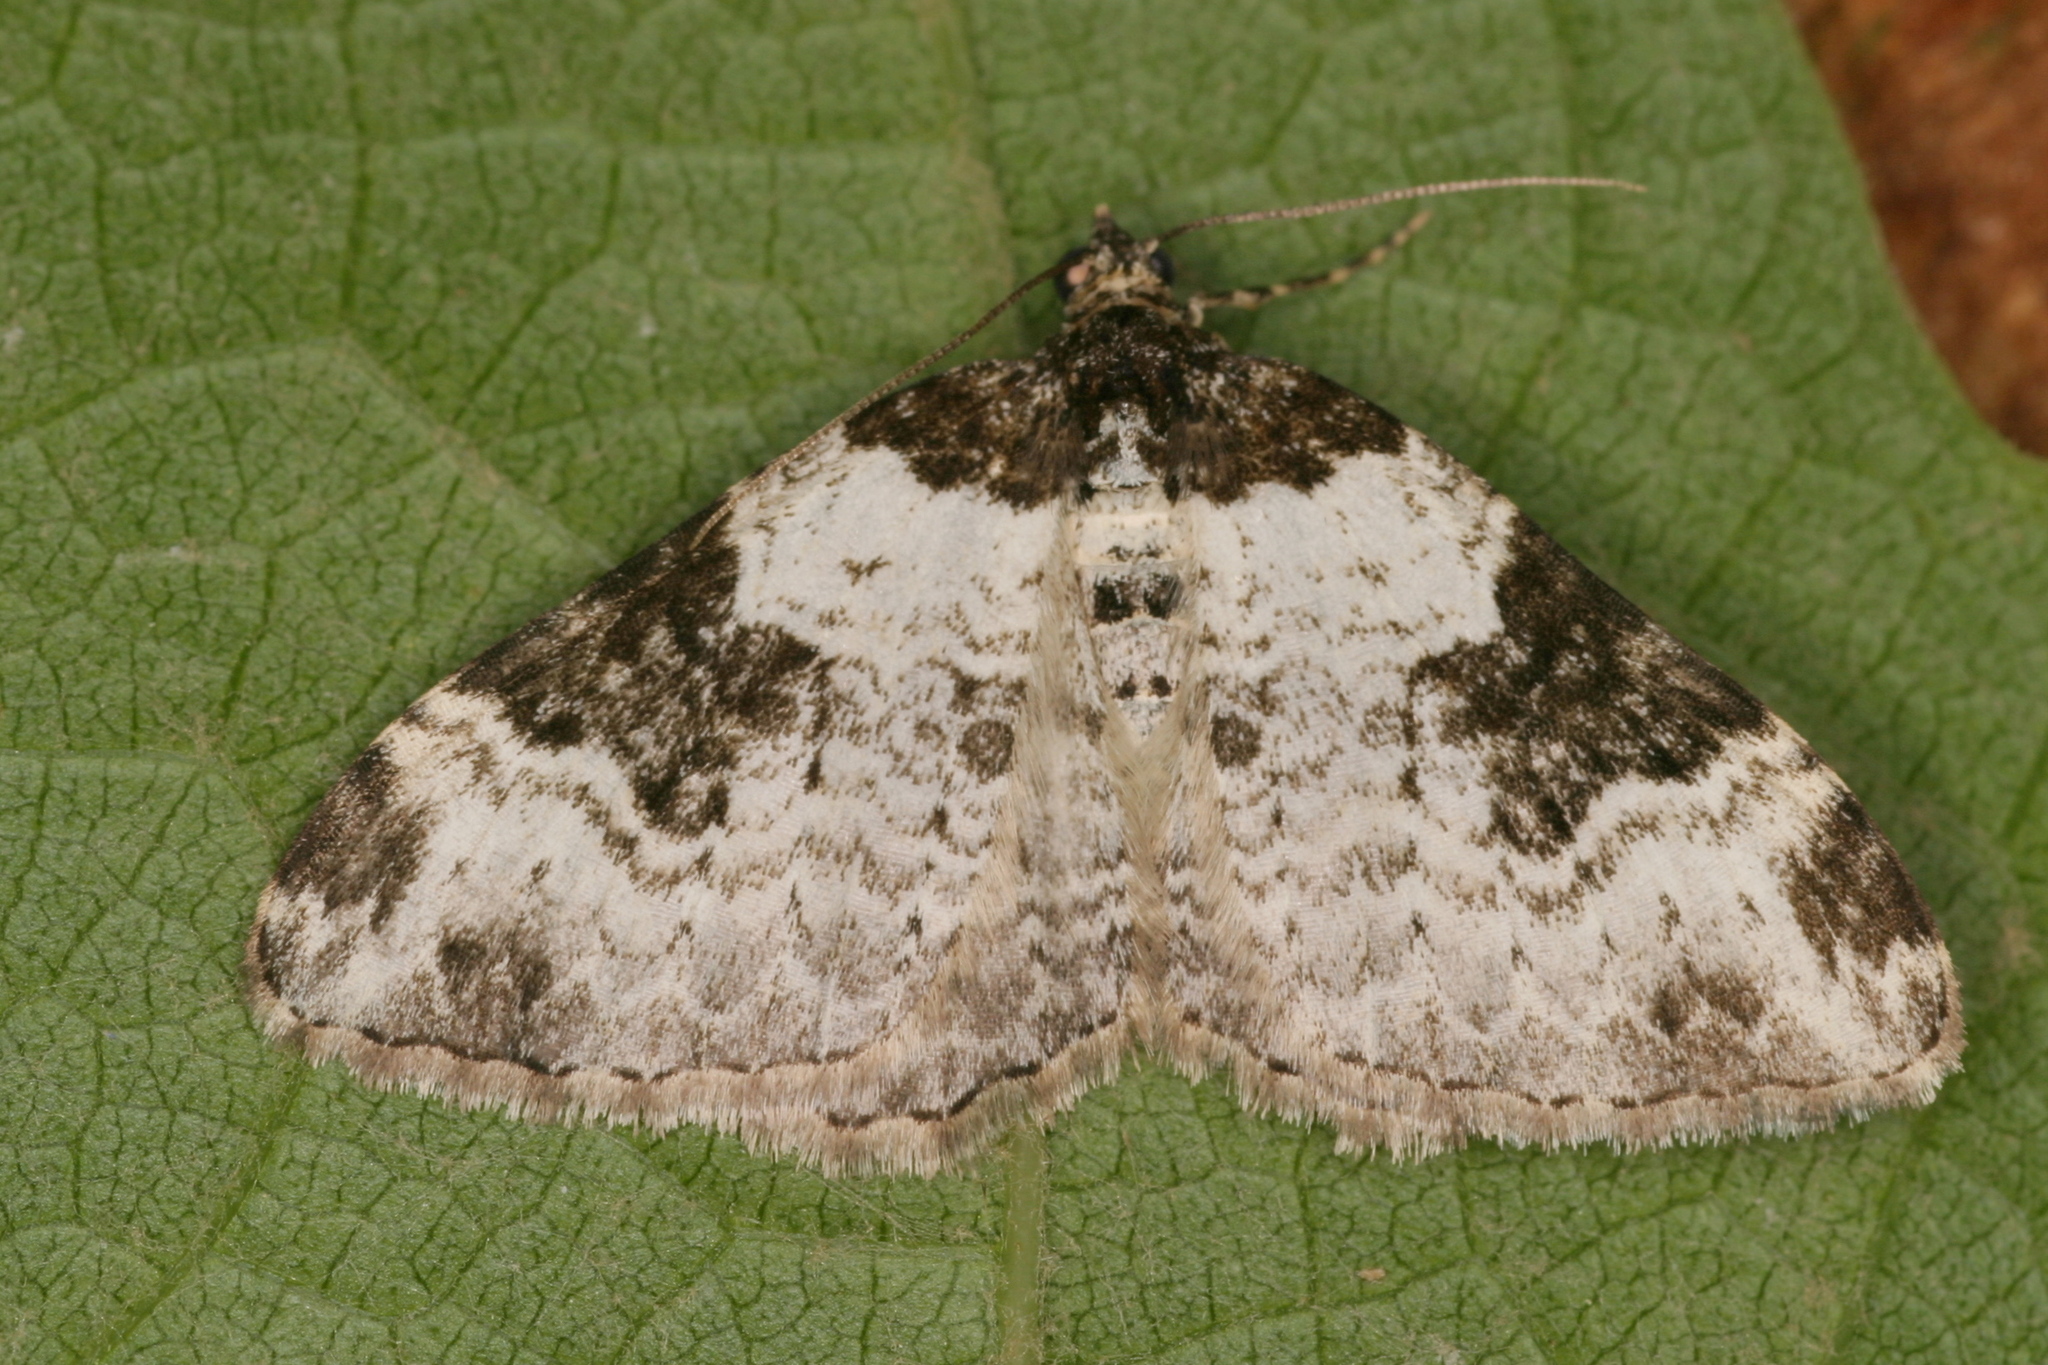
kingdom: Animalia
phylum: Arthropoda
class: Insecta
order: Lepidoptera
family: Geometridae
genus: Xanthorhoe
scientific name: Xanthorhoe fluctuata
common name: Garden carpet
